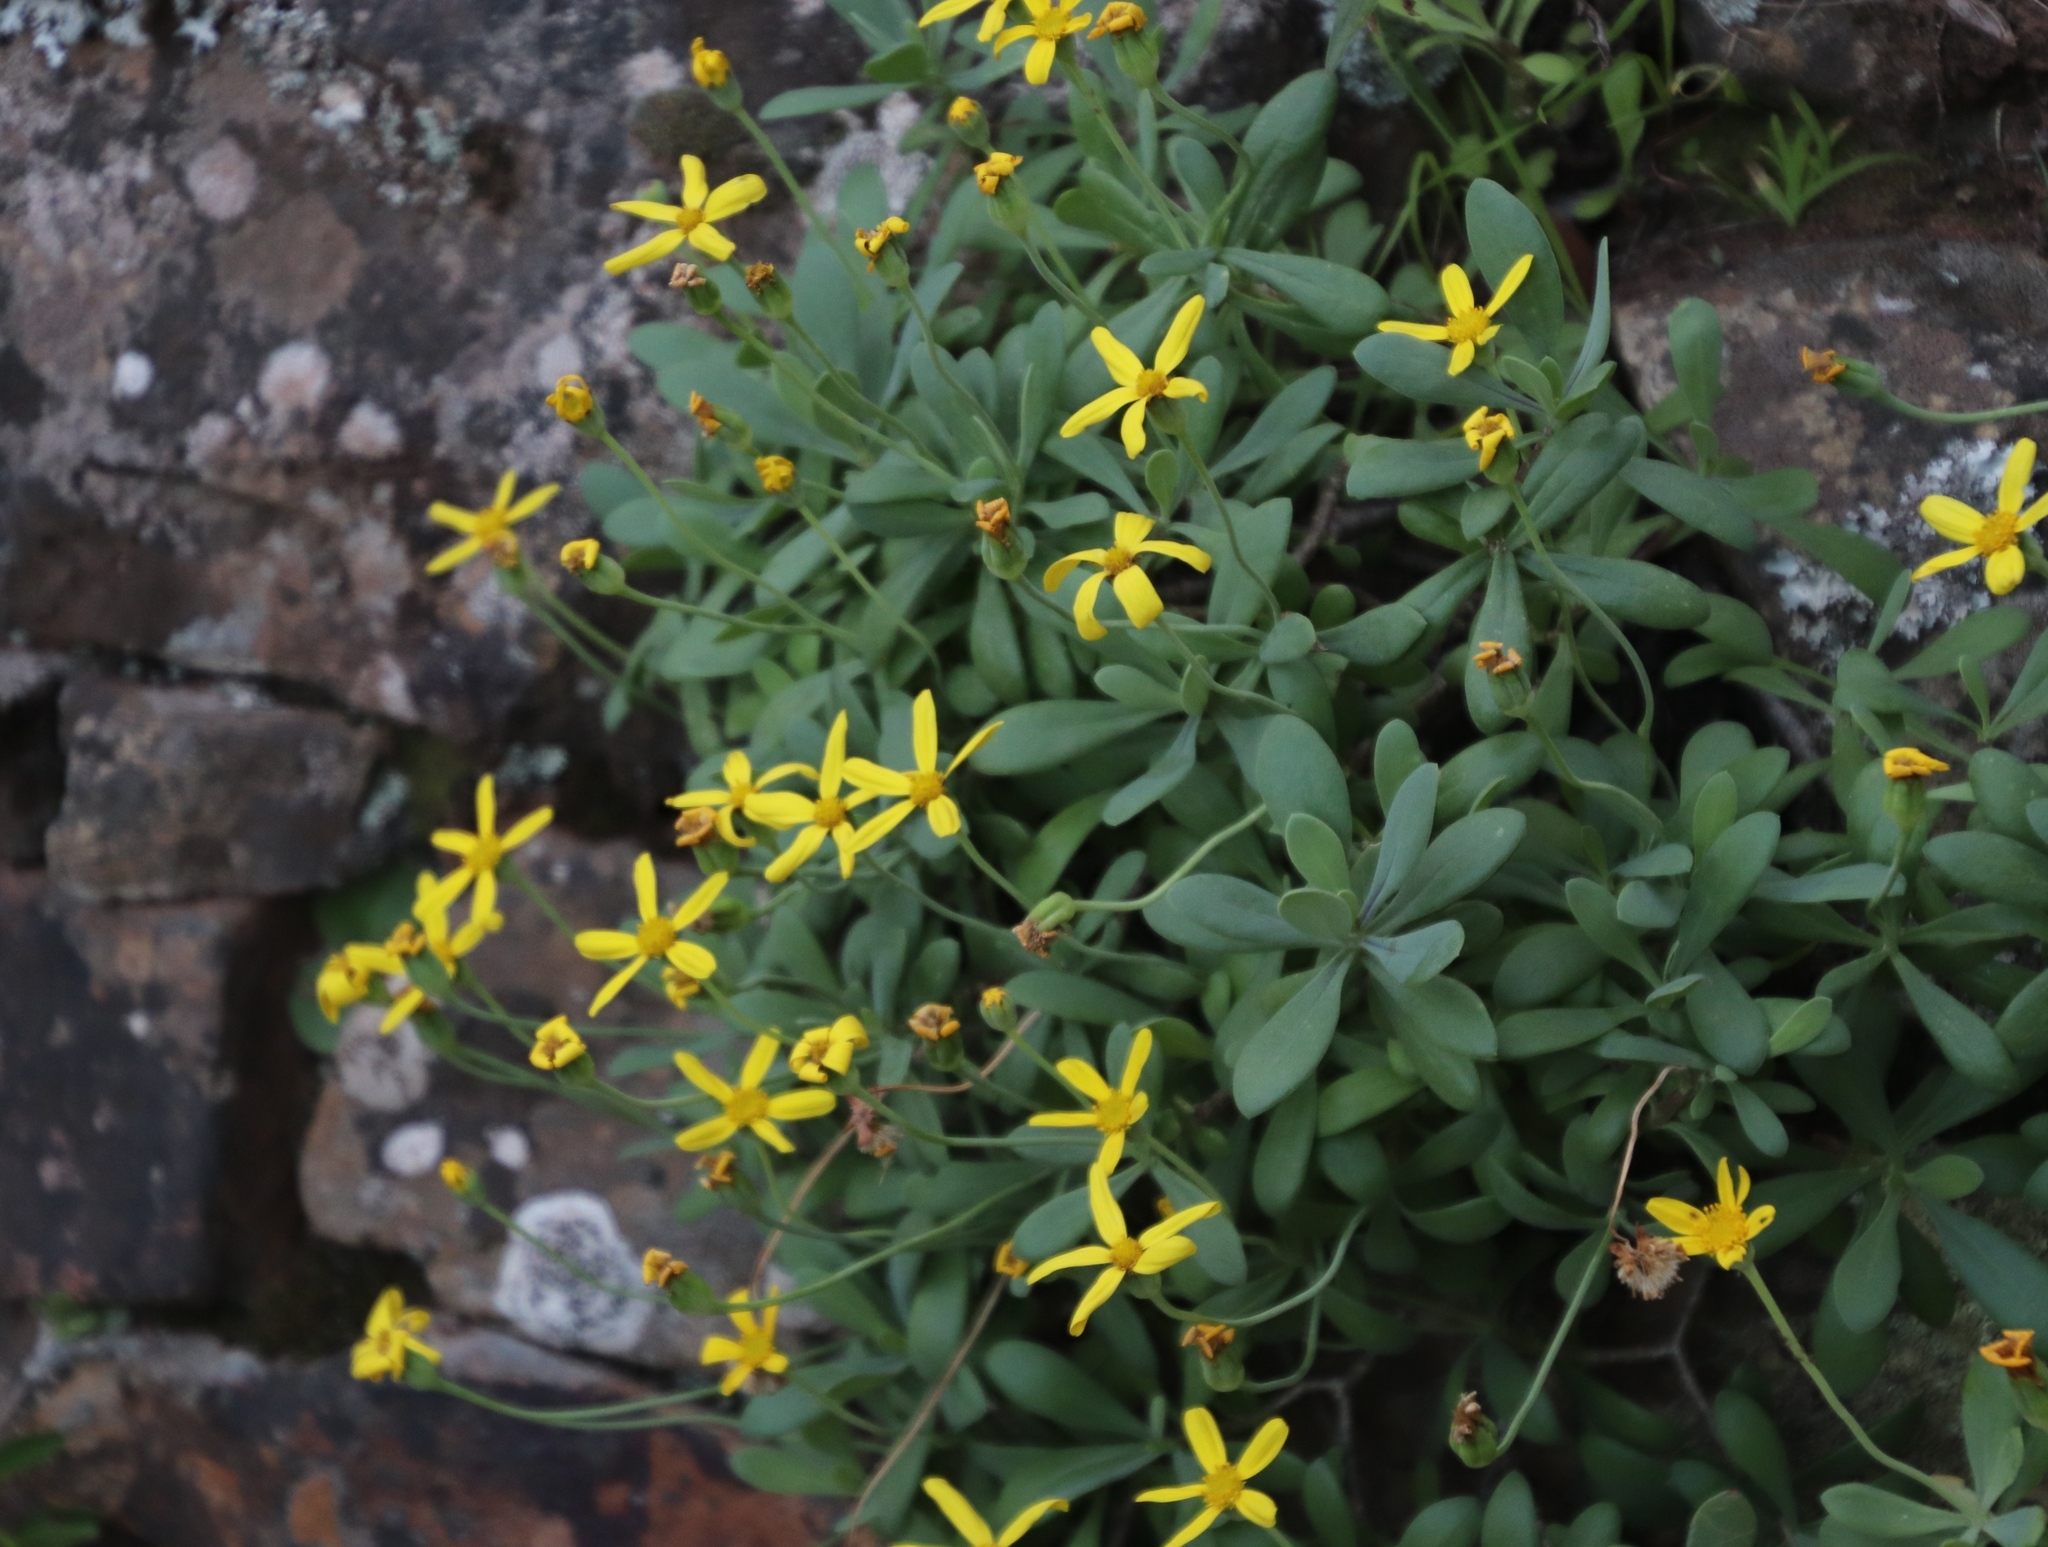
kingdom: Plantae
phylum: Tracheophyta
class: Magnoliopsida
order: Asterales
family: Asteraceae
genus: Othonna
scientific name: Othonna arborescens
